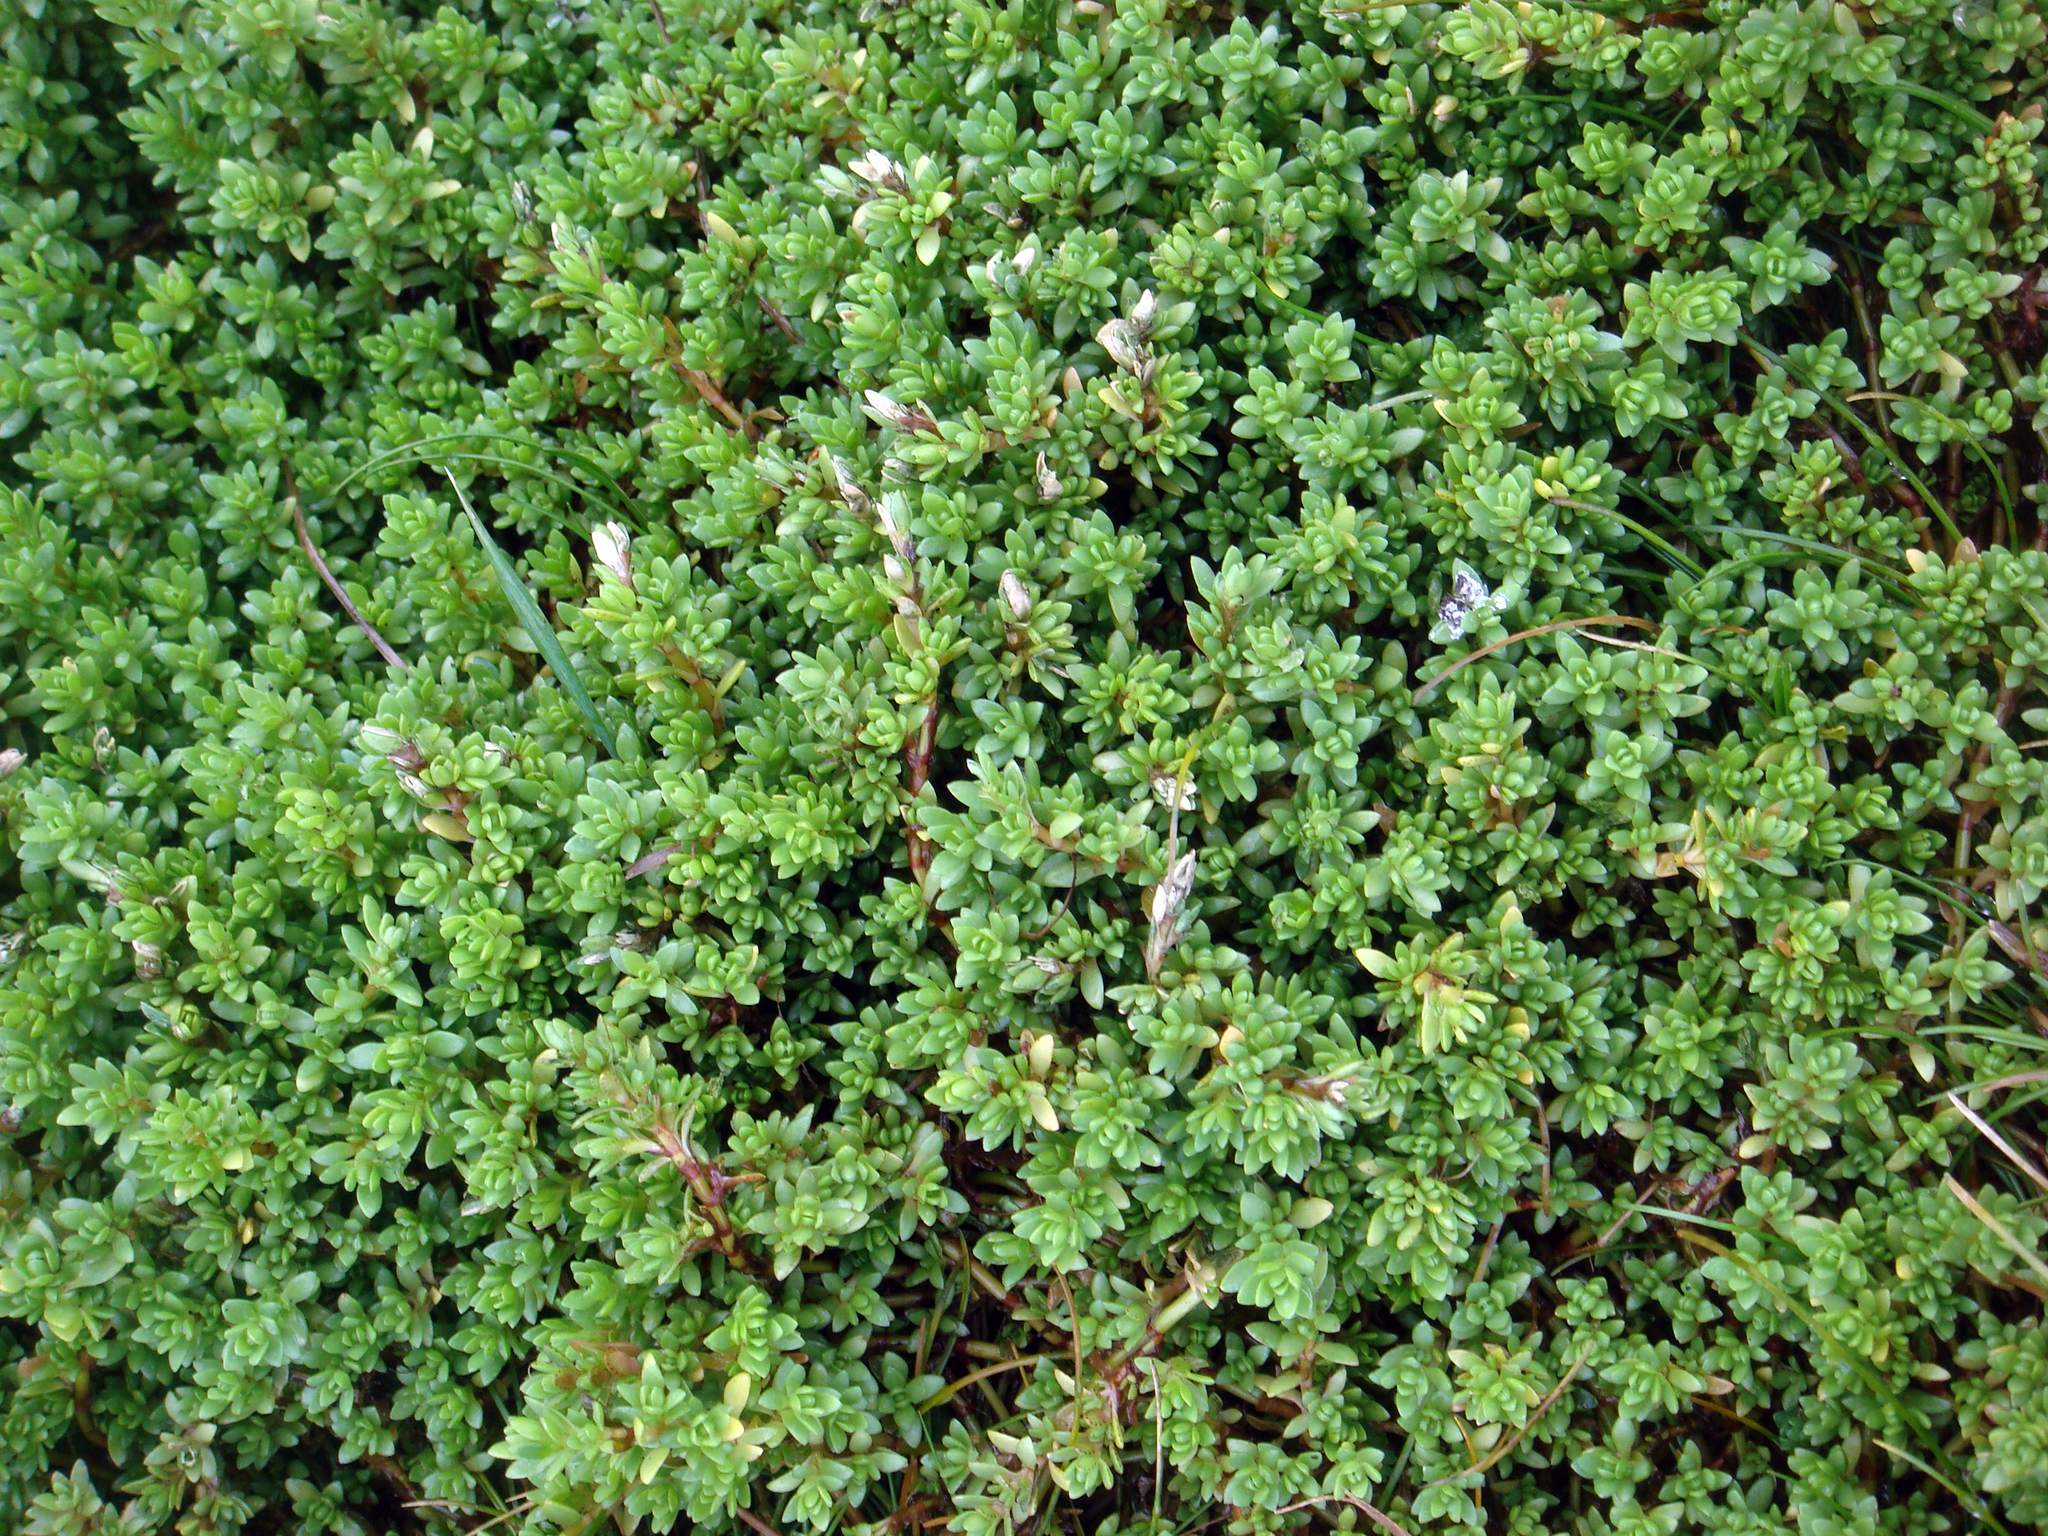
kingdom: Plantae
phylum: Tracheophyta
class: Magnoliopsida
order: Saxifragales
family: Crassulaceae
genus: Crassula
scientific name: Crassula moschata
